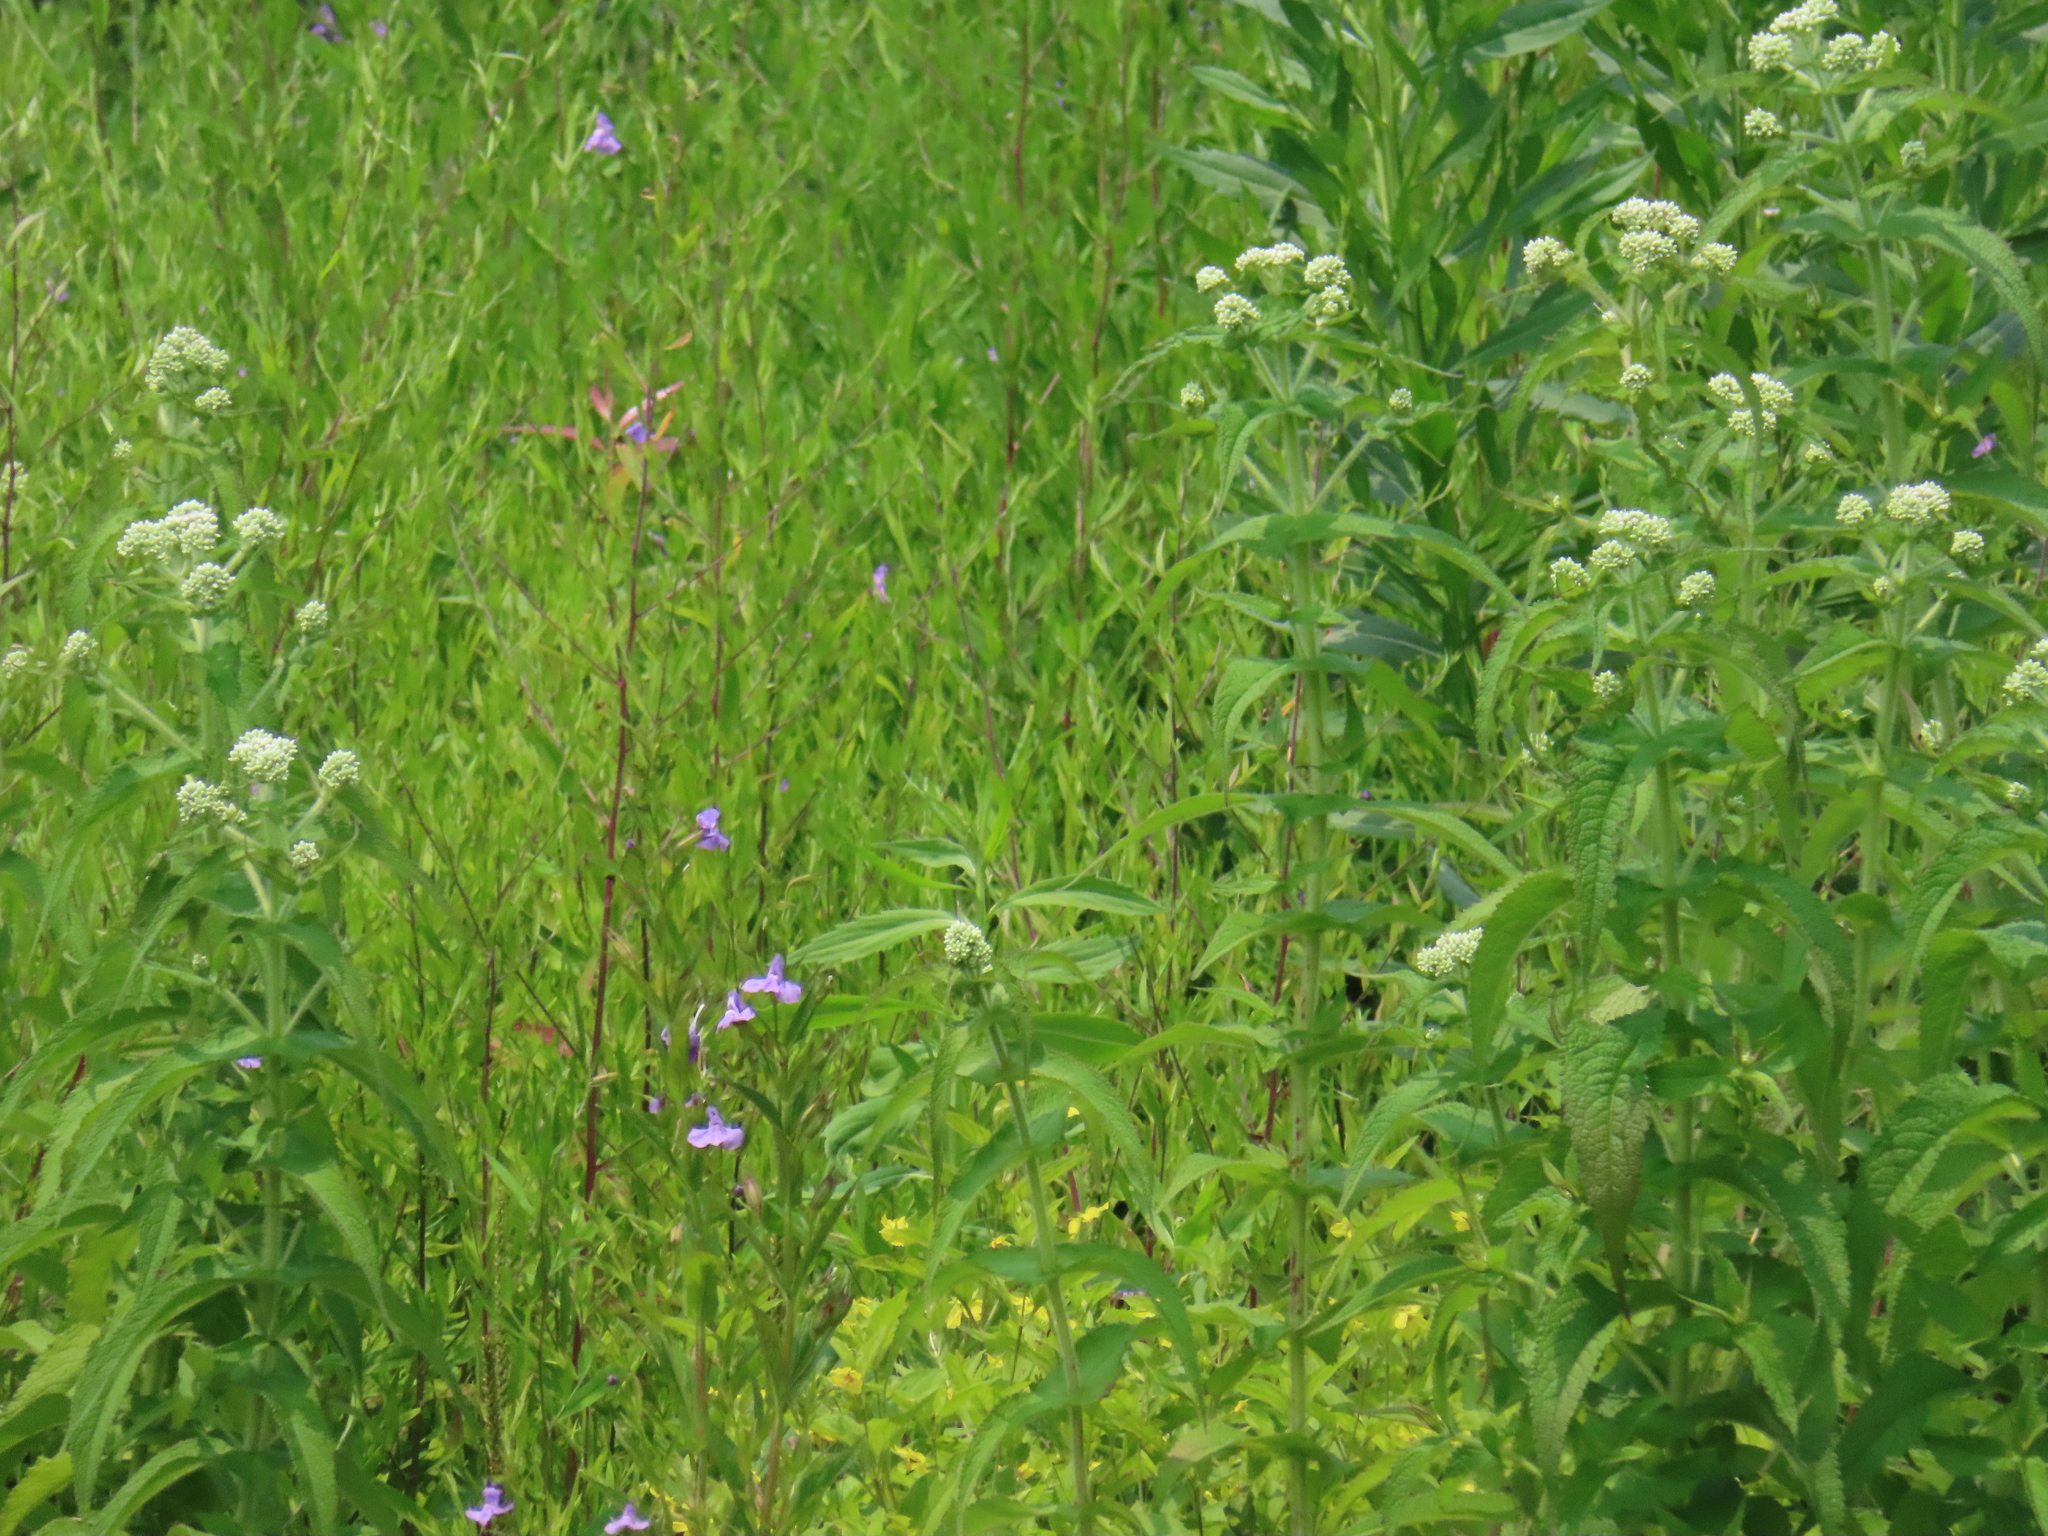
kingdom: Plantae
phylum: Tracheophyta
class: Magnoliopsida
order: Asterales
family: Asteraceae
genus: Eupatorium
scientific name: Eupatorium perfoliatum
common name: Boneset
